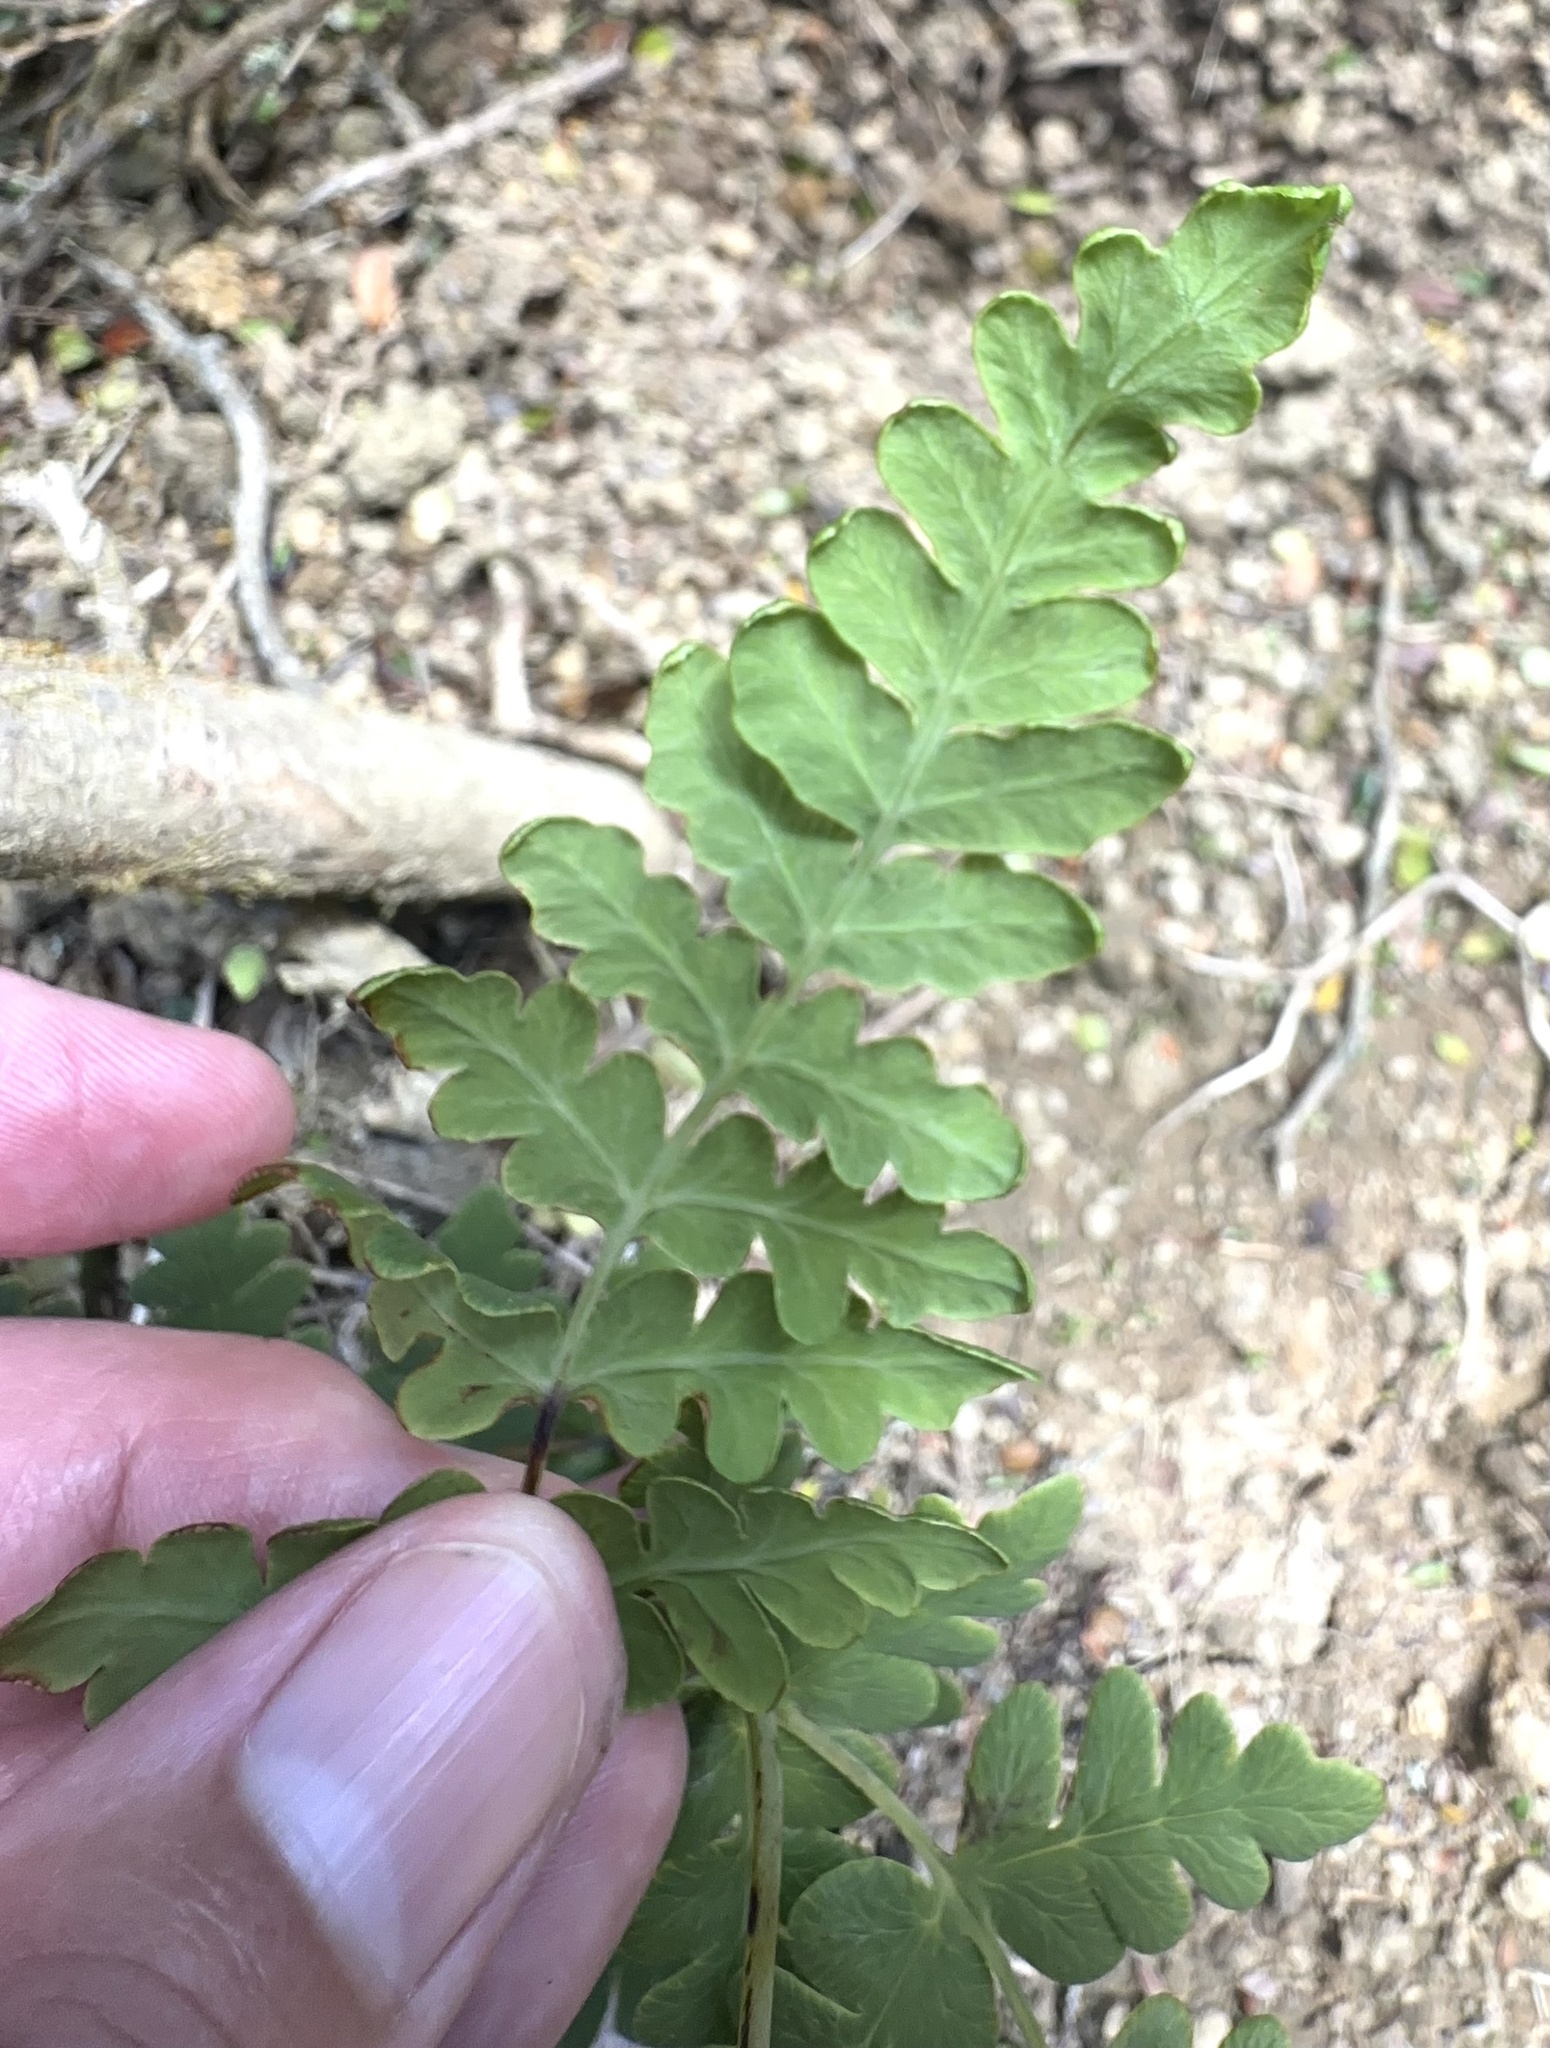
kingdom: Plantae
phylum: Tracheophyta
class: Polypodiopsida
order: Polypodiales
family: Dennstaedtiaceae
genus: Histiopteris
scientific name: Histiopteris incisa
